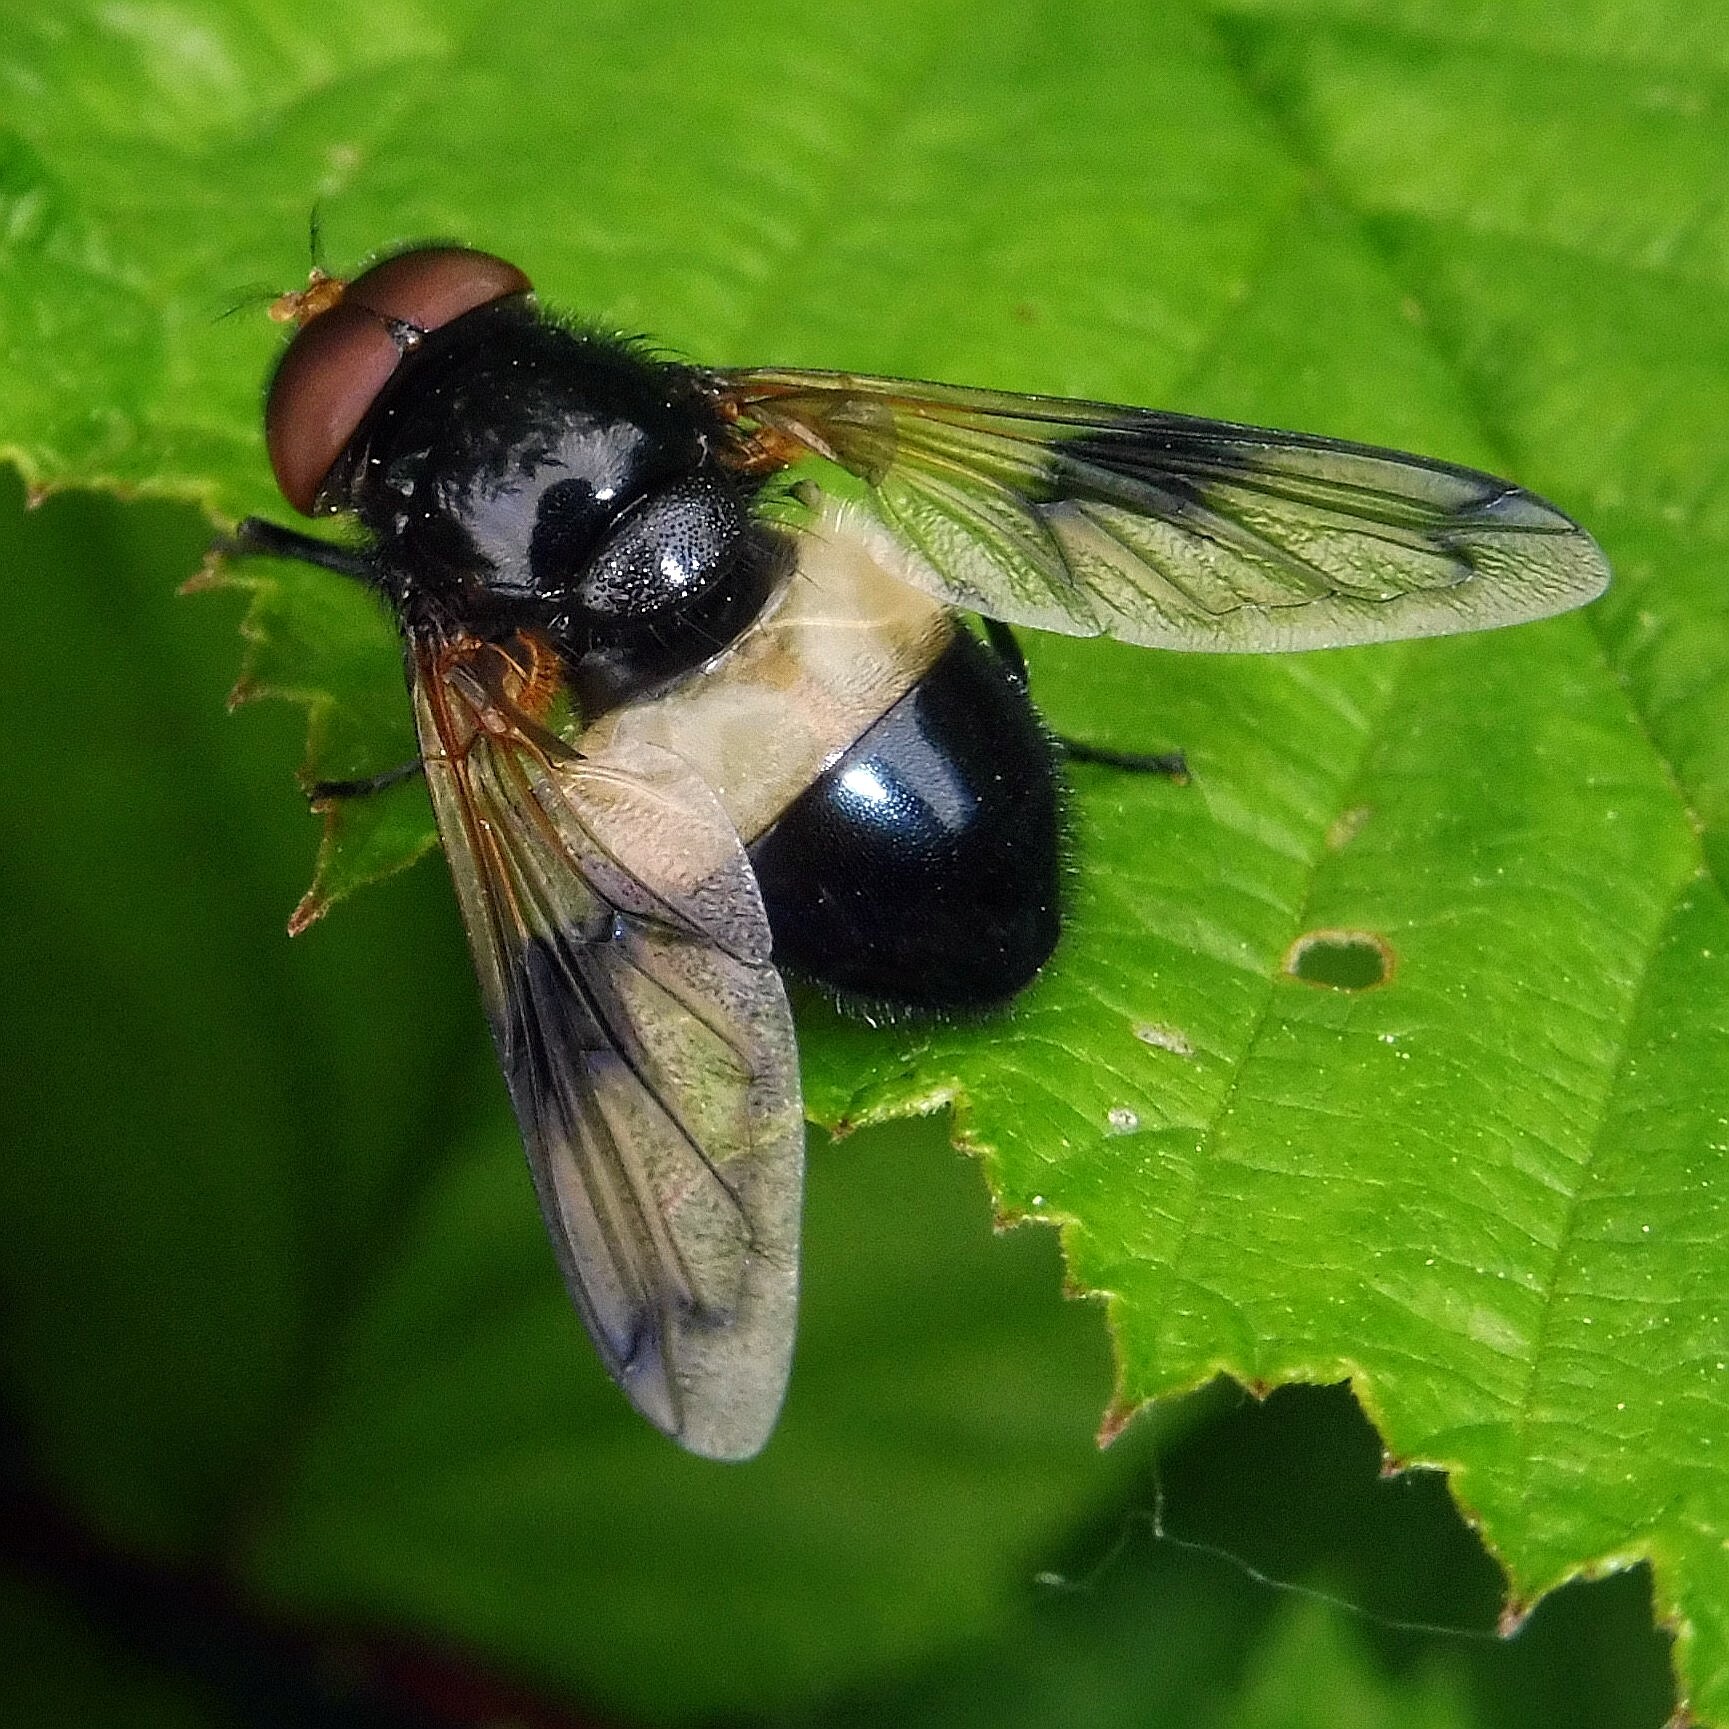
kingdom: Animalia
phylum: Arthropoda
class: Insecta
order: Diptera
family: Syrphidae
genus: Volucella
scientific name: Volucella pellucens
